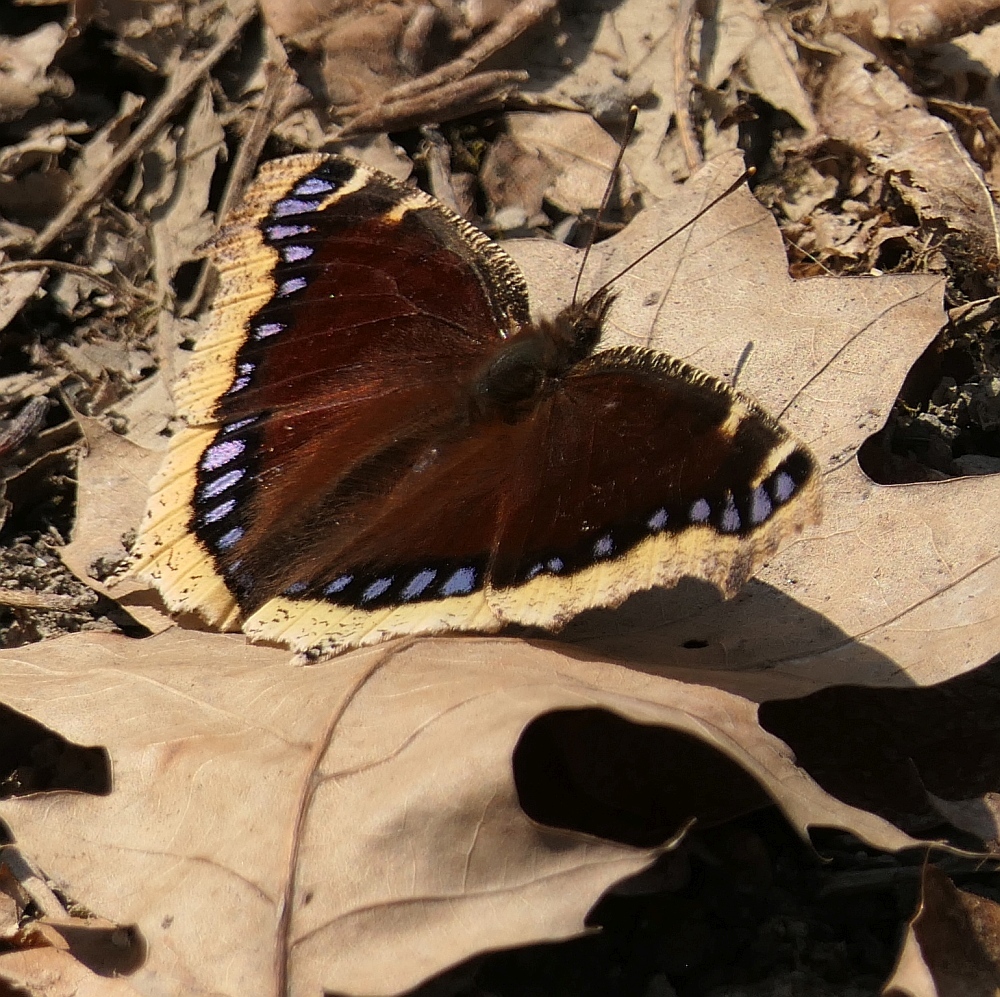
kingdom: Animalia
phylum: Arthropoda
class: Insecta
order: Lepidoptera
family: Nymphalidae
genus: Nymphalis
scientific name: Nymphalis antiopa
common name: Camberwell beauty
